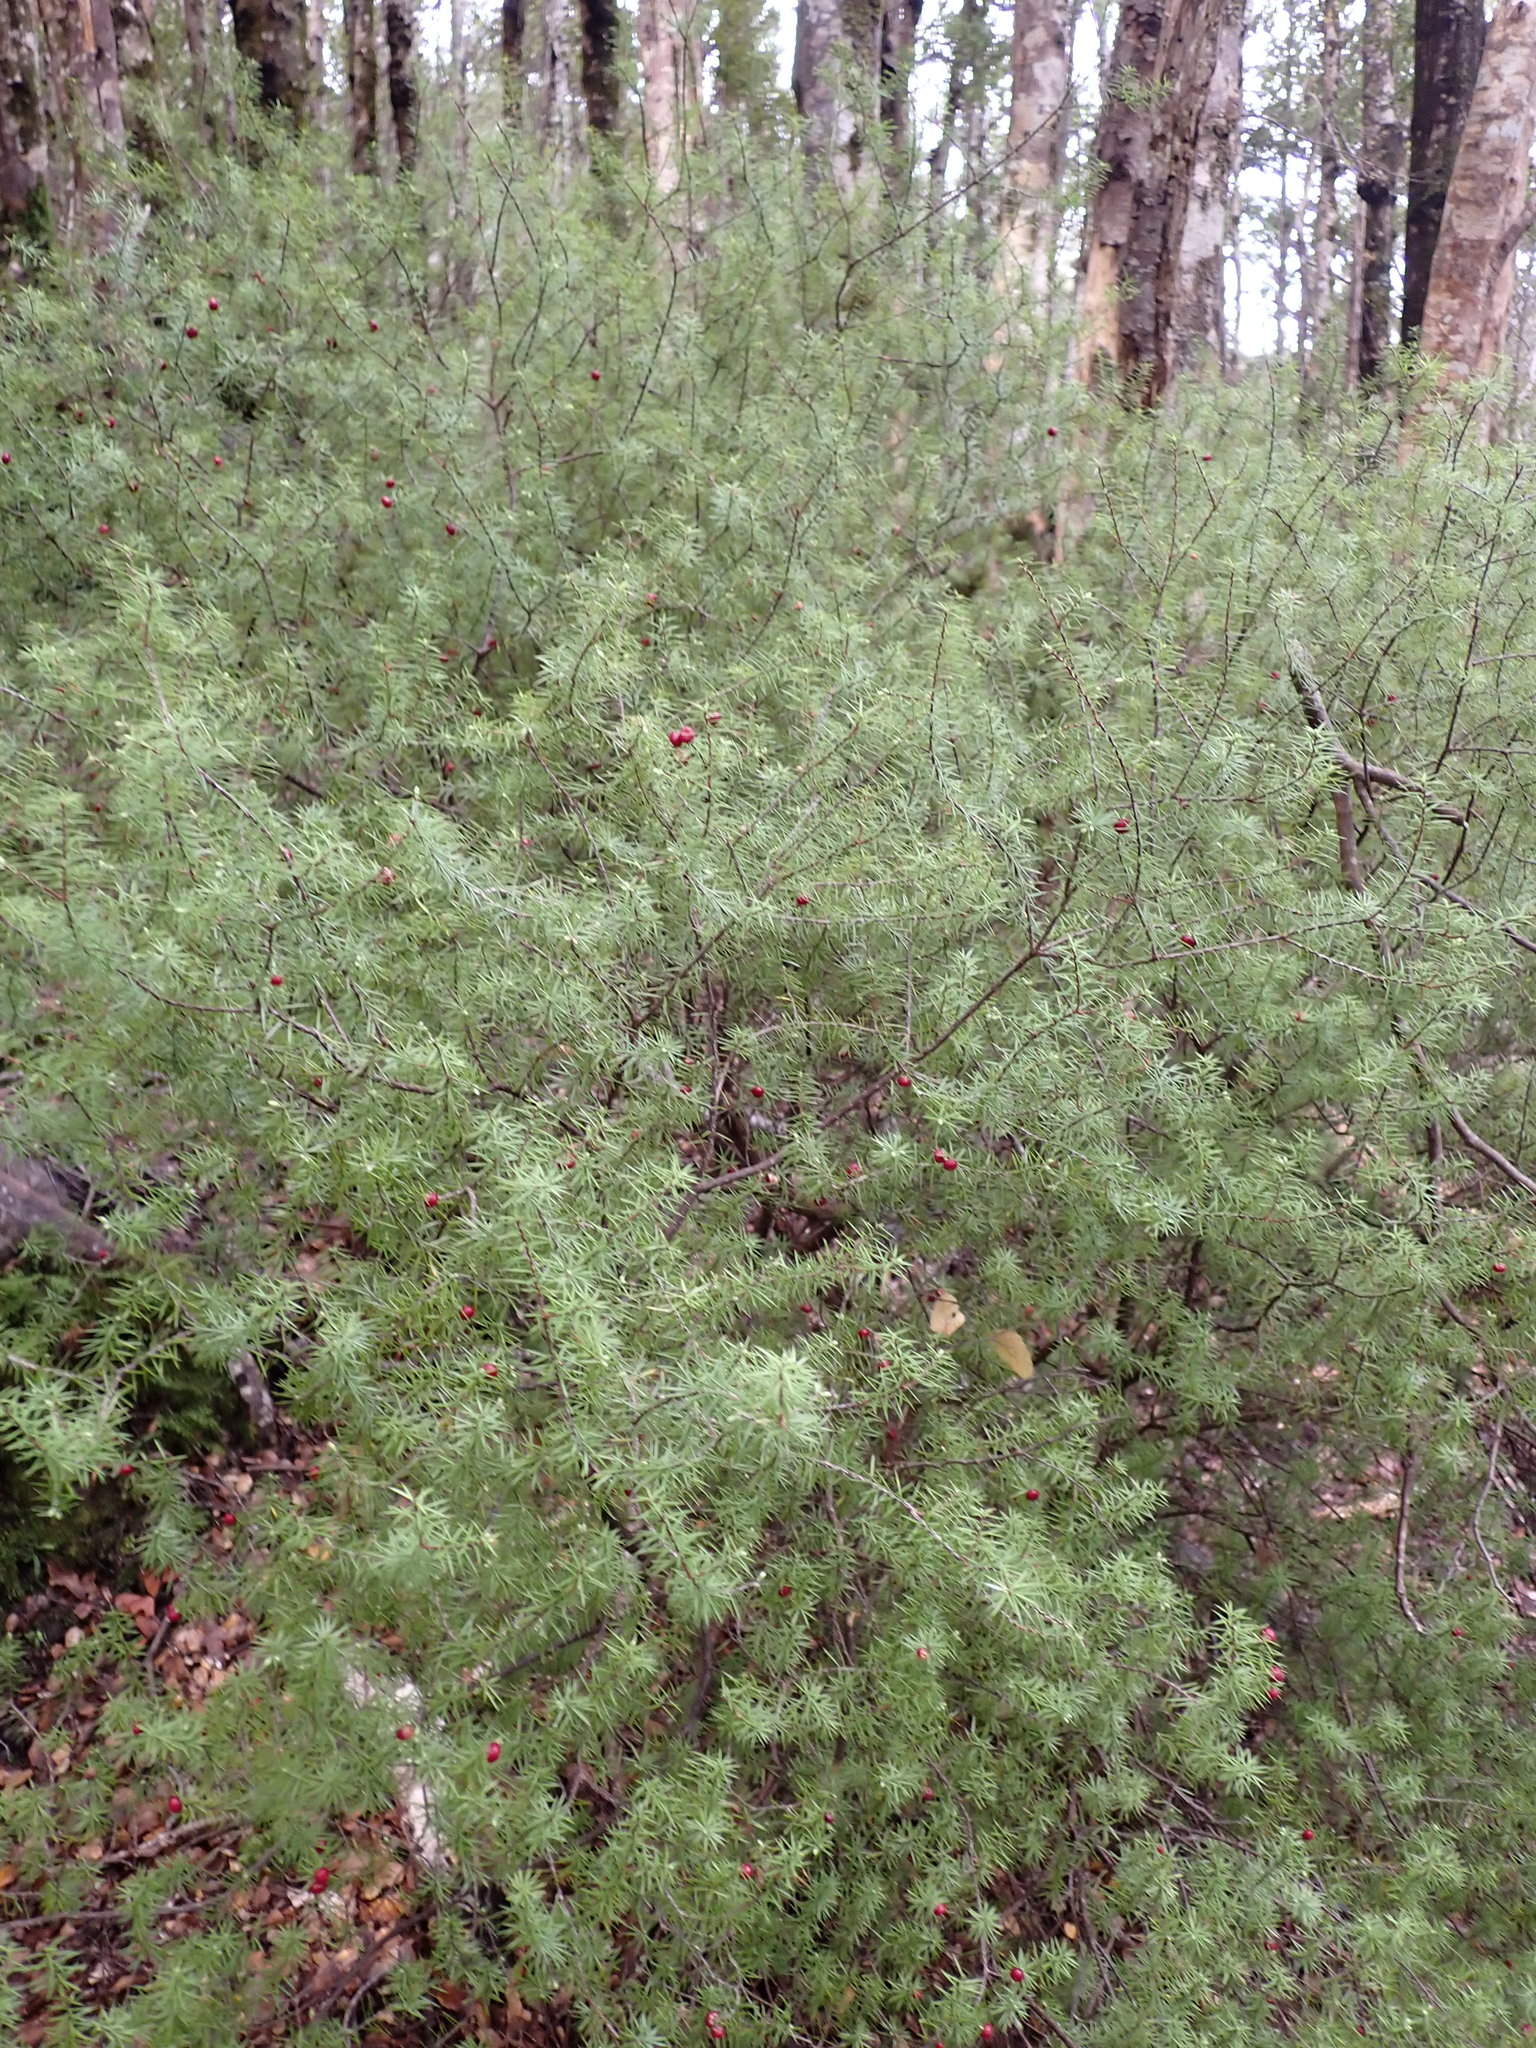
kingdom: Plantae
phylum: Tracheophyta
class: Magnoliopsida
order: Ericales
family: Ericaceae
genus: Leptecophylla
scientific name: Leptecophylla juniperina
